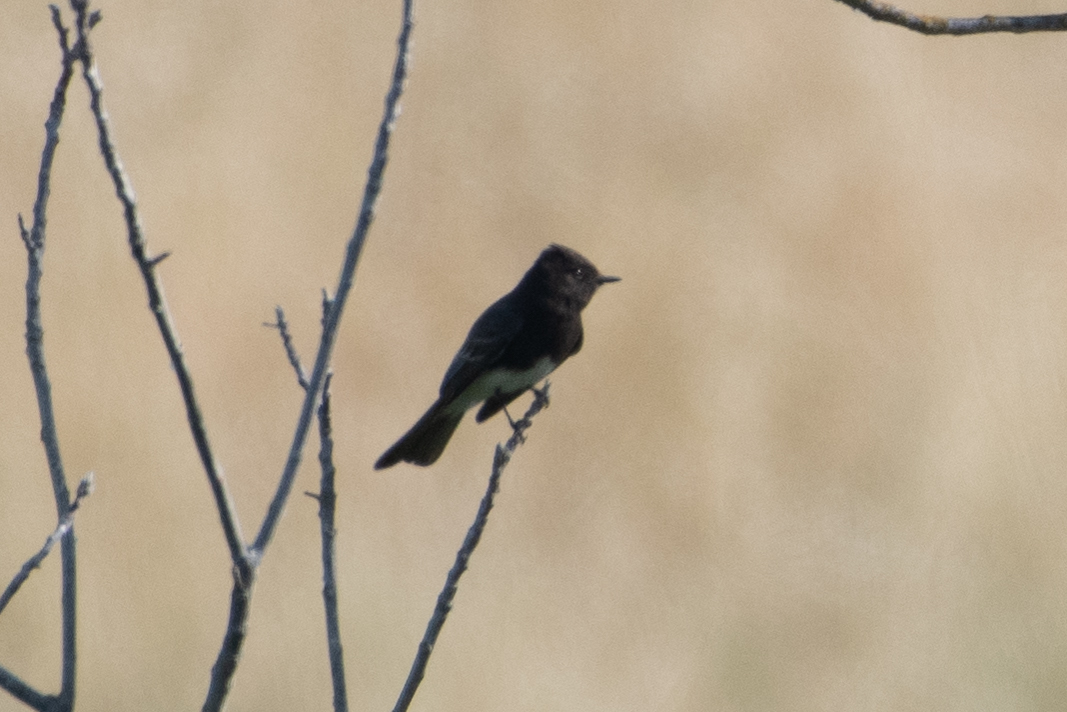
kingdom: Animalia
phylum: Chordata
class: Aves
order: Passeriformes
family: Tyrannidae
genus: Sayornis
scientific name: Sayornis nigricans
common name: Black phoebe
